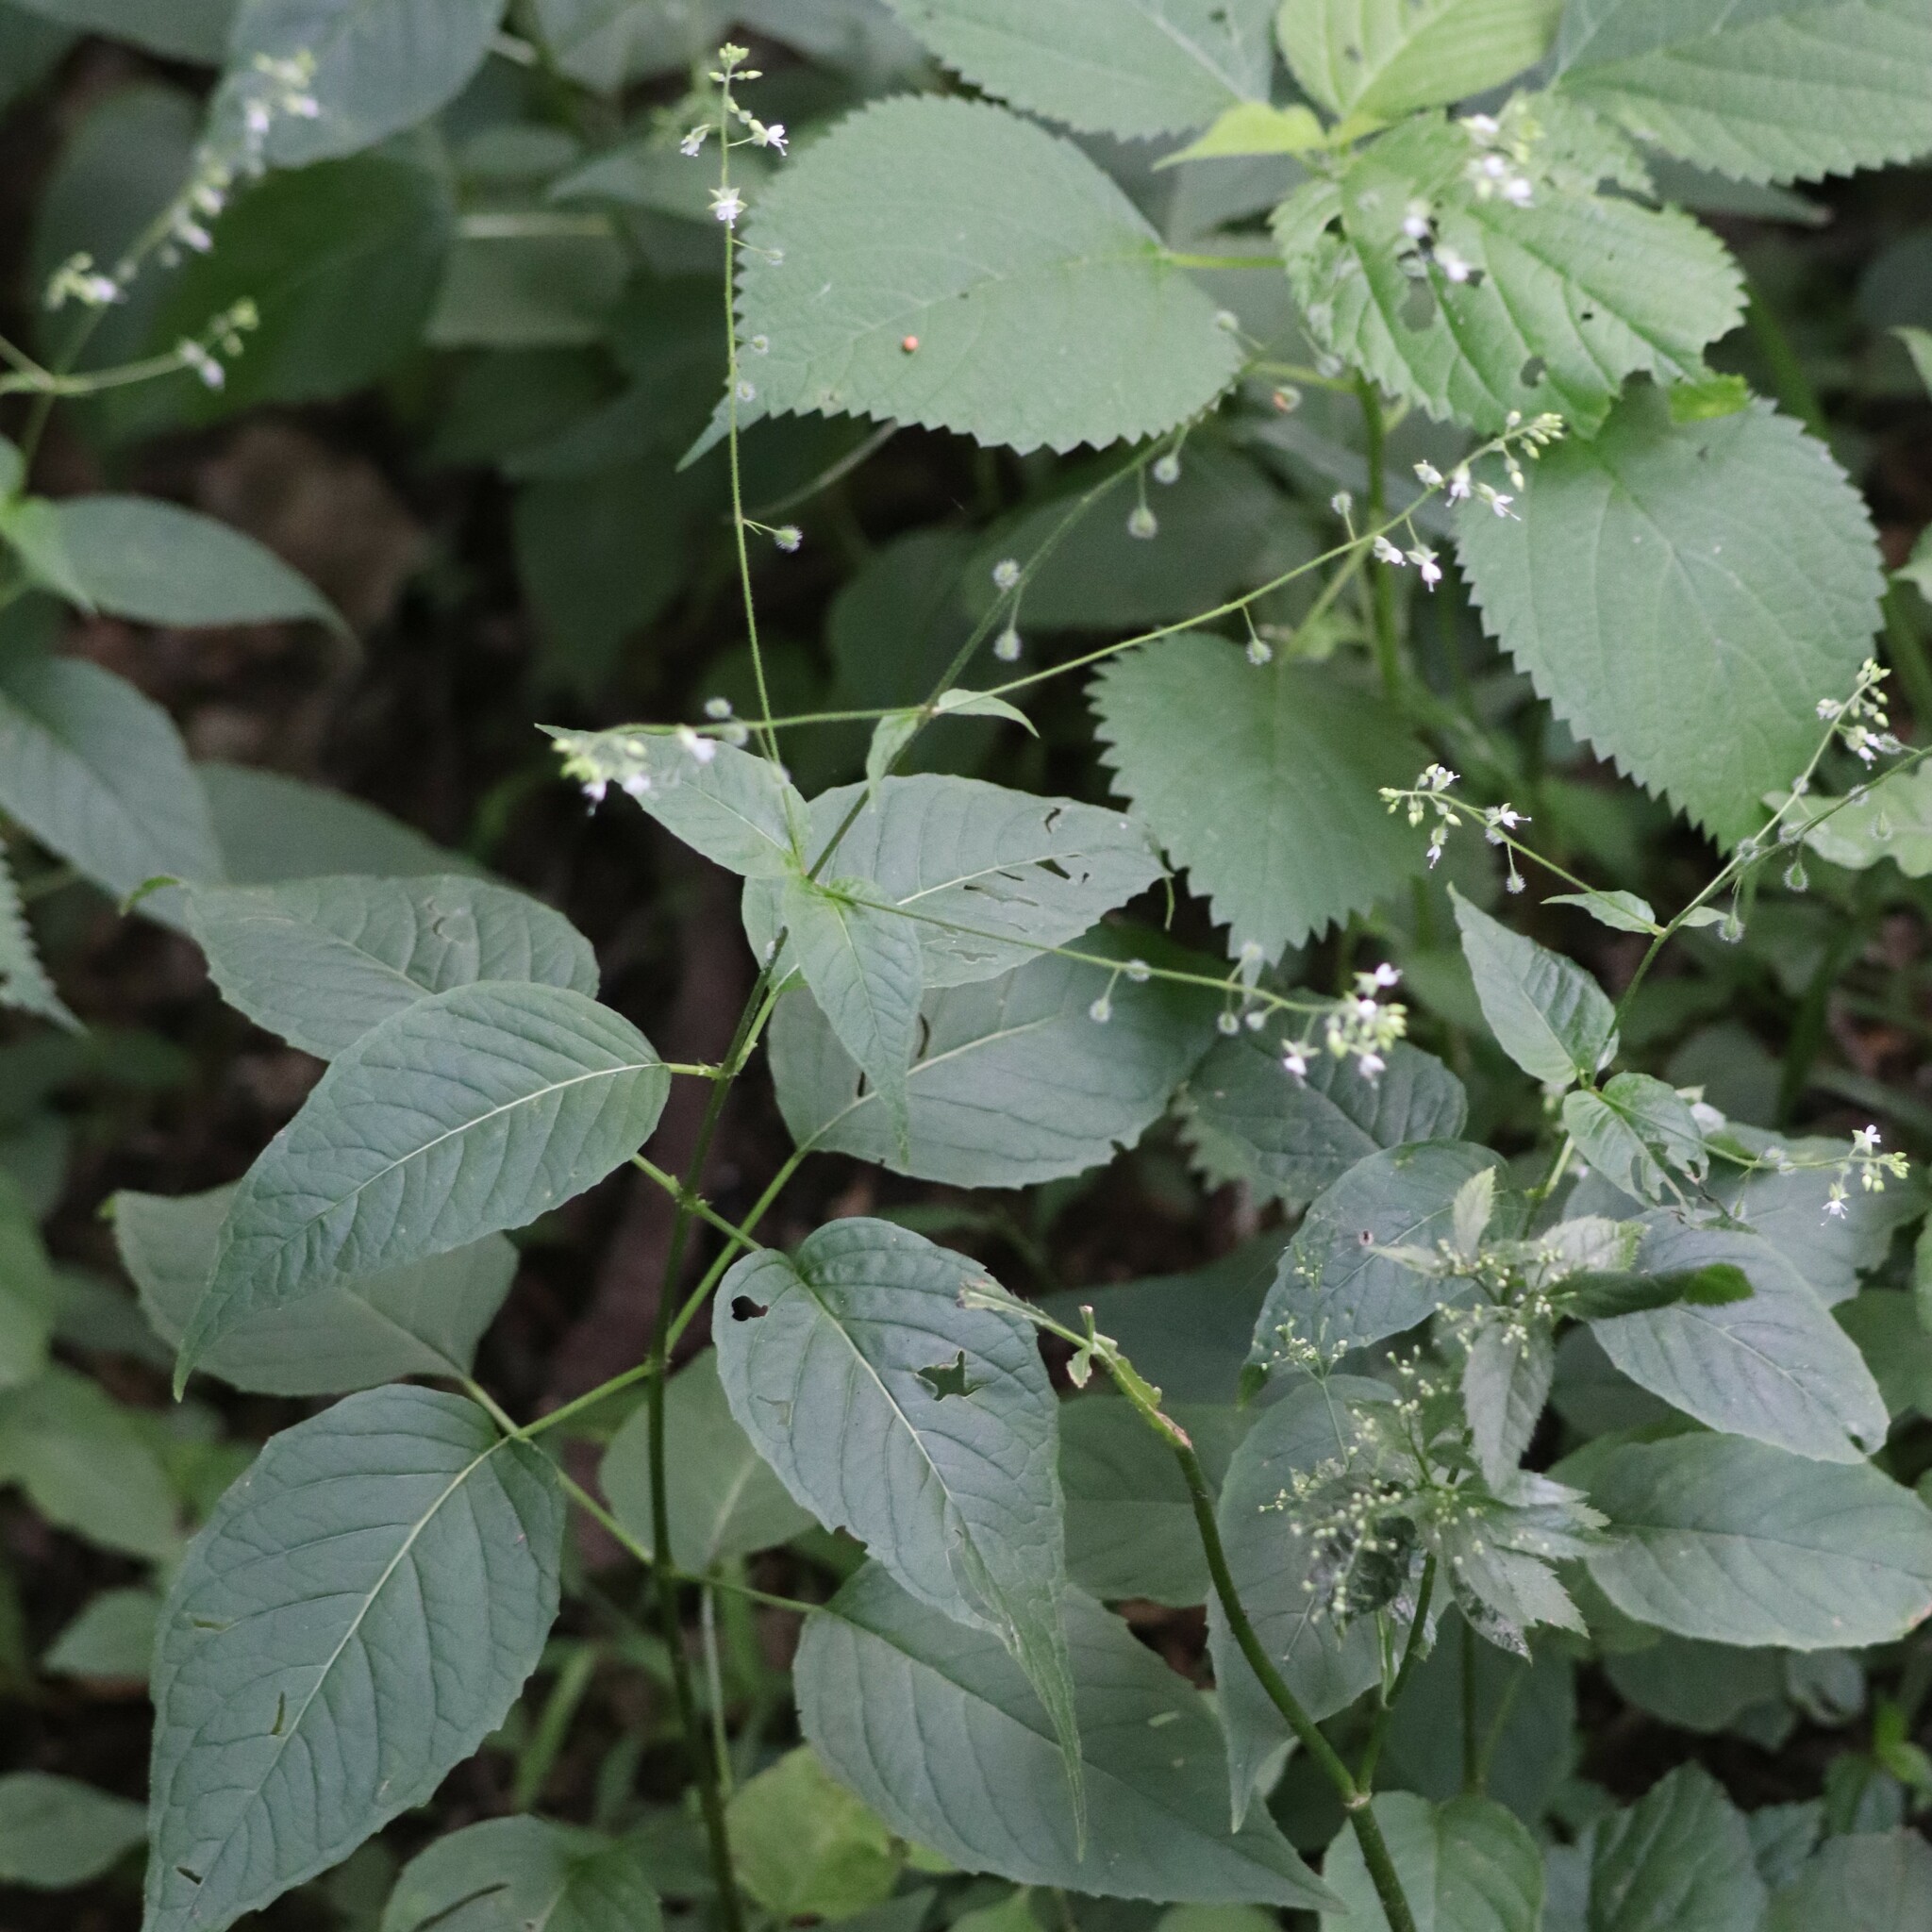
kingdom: Plantae
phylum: Tracheophyta
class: Magnoliopsida
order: Myrtales
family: Onagraceae
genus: Circaea
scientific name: Circaea canadensis
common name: Broad-leaved enchanter's nightshade
